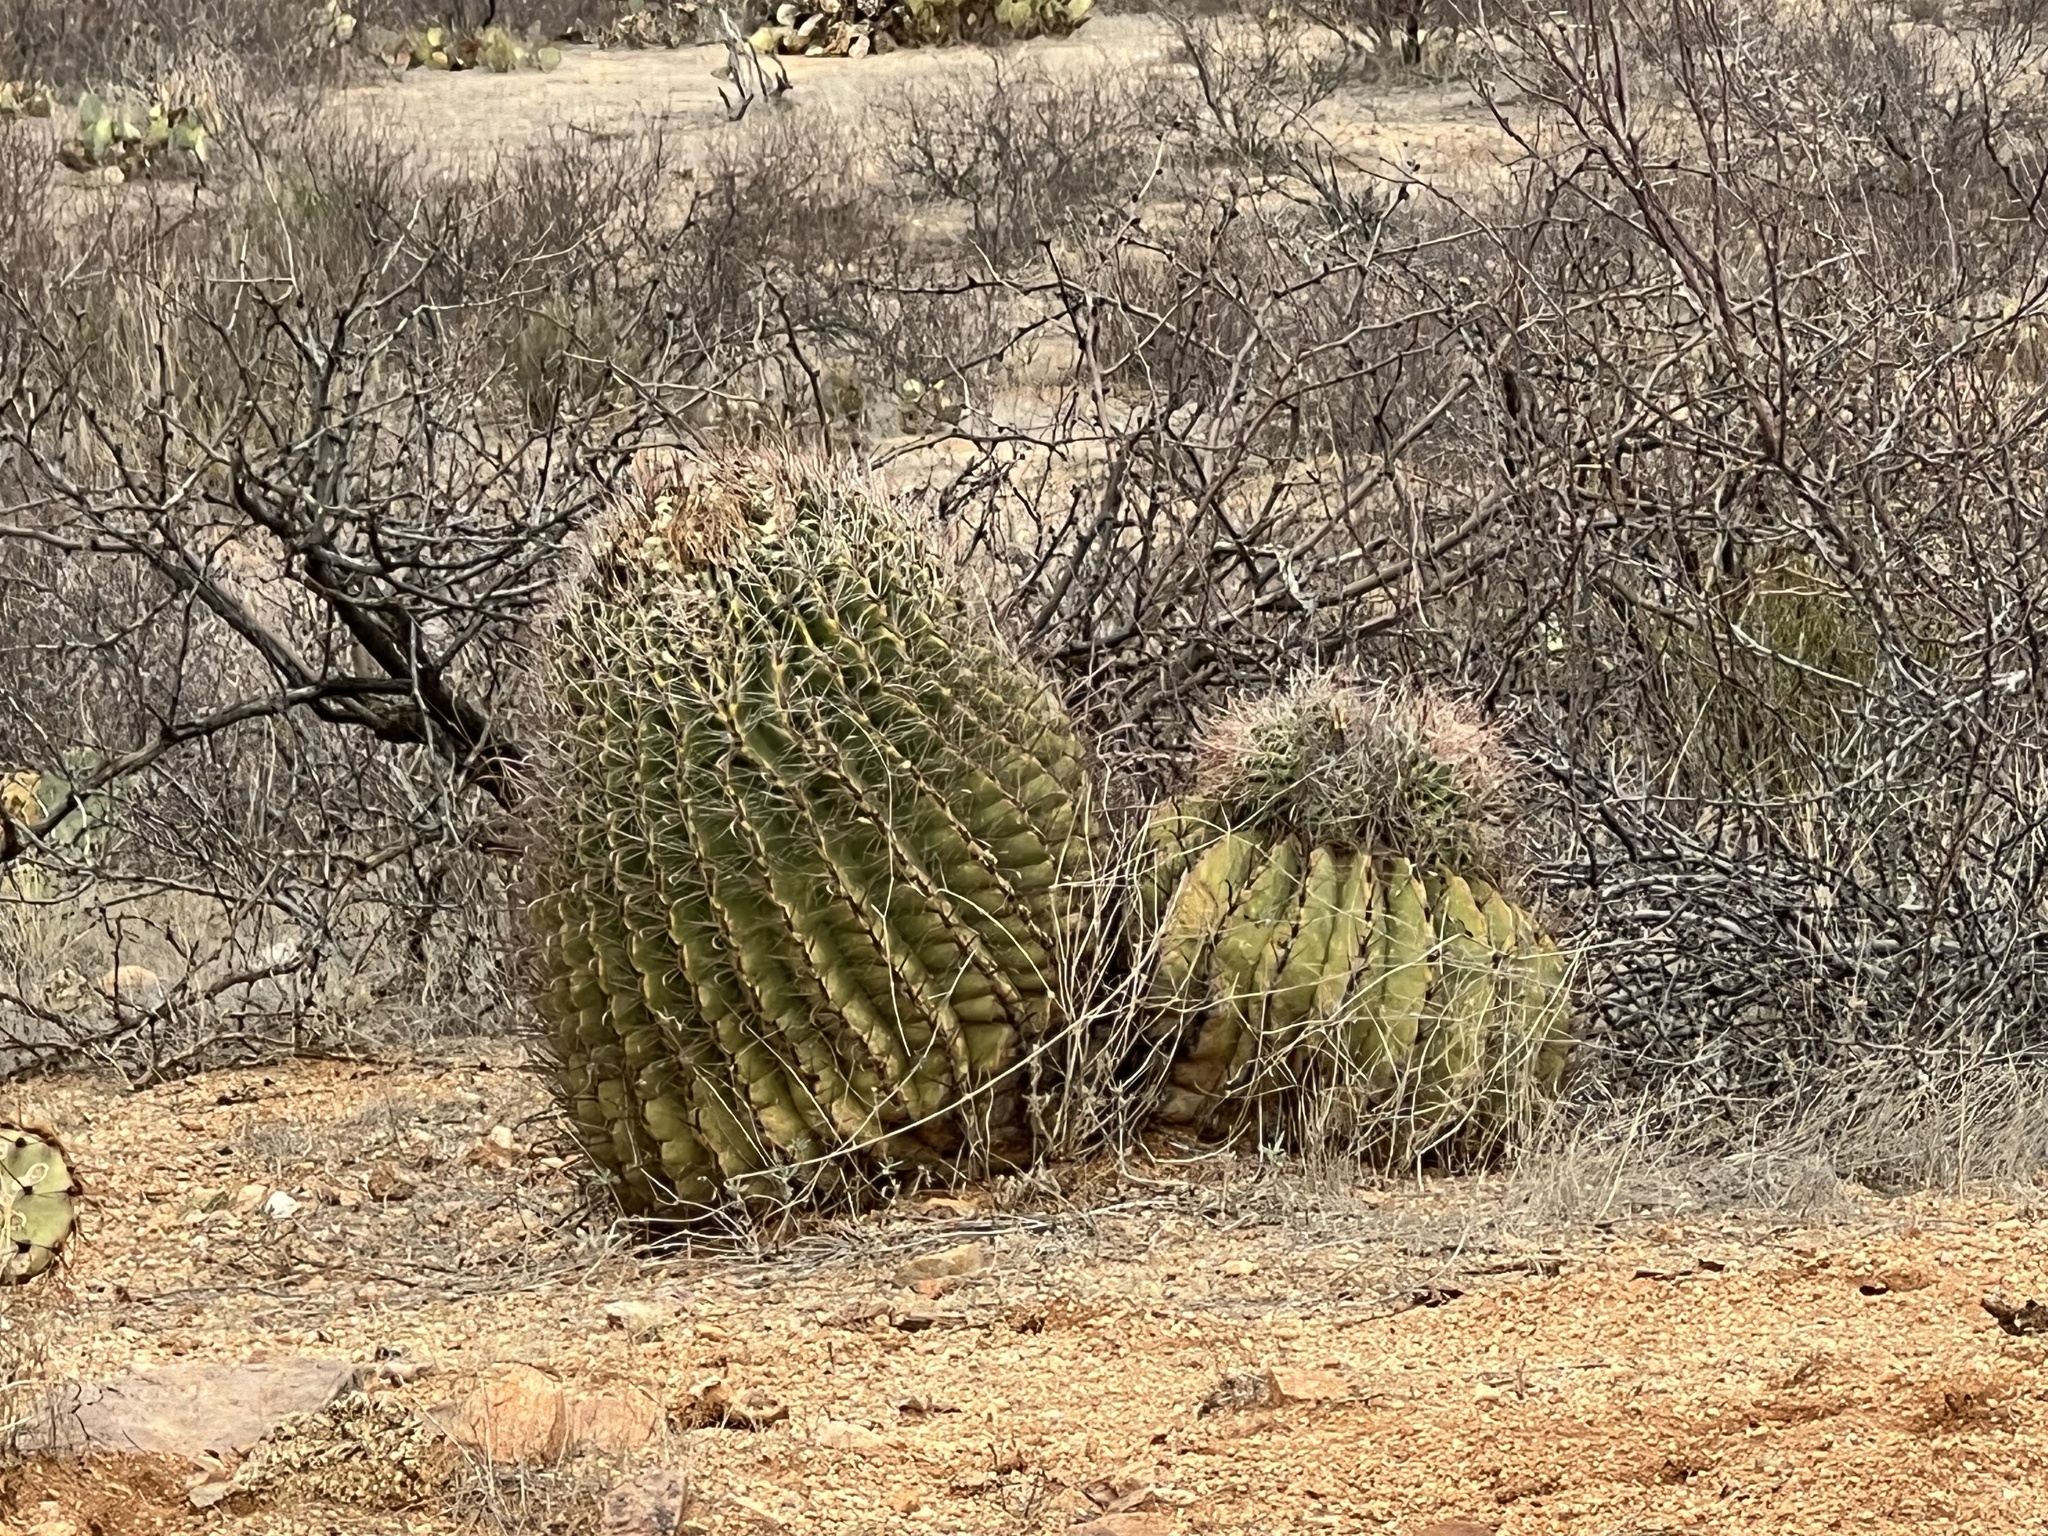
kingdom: Plantae
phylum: Tracheophyta
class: Magnoliopsida
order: Caryophyllales
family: Cactaceae
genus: Ferocactus
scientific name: Ferocactus wislizeni
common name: Candy barrel cactus
